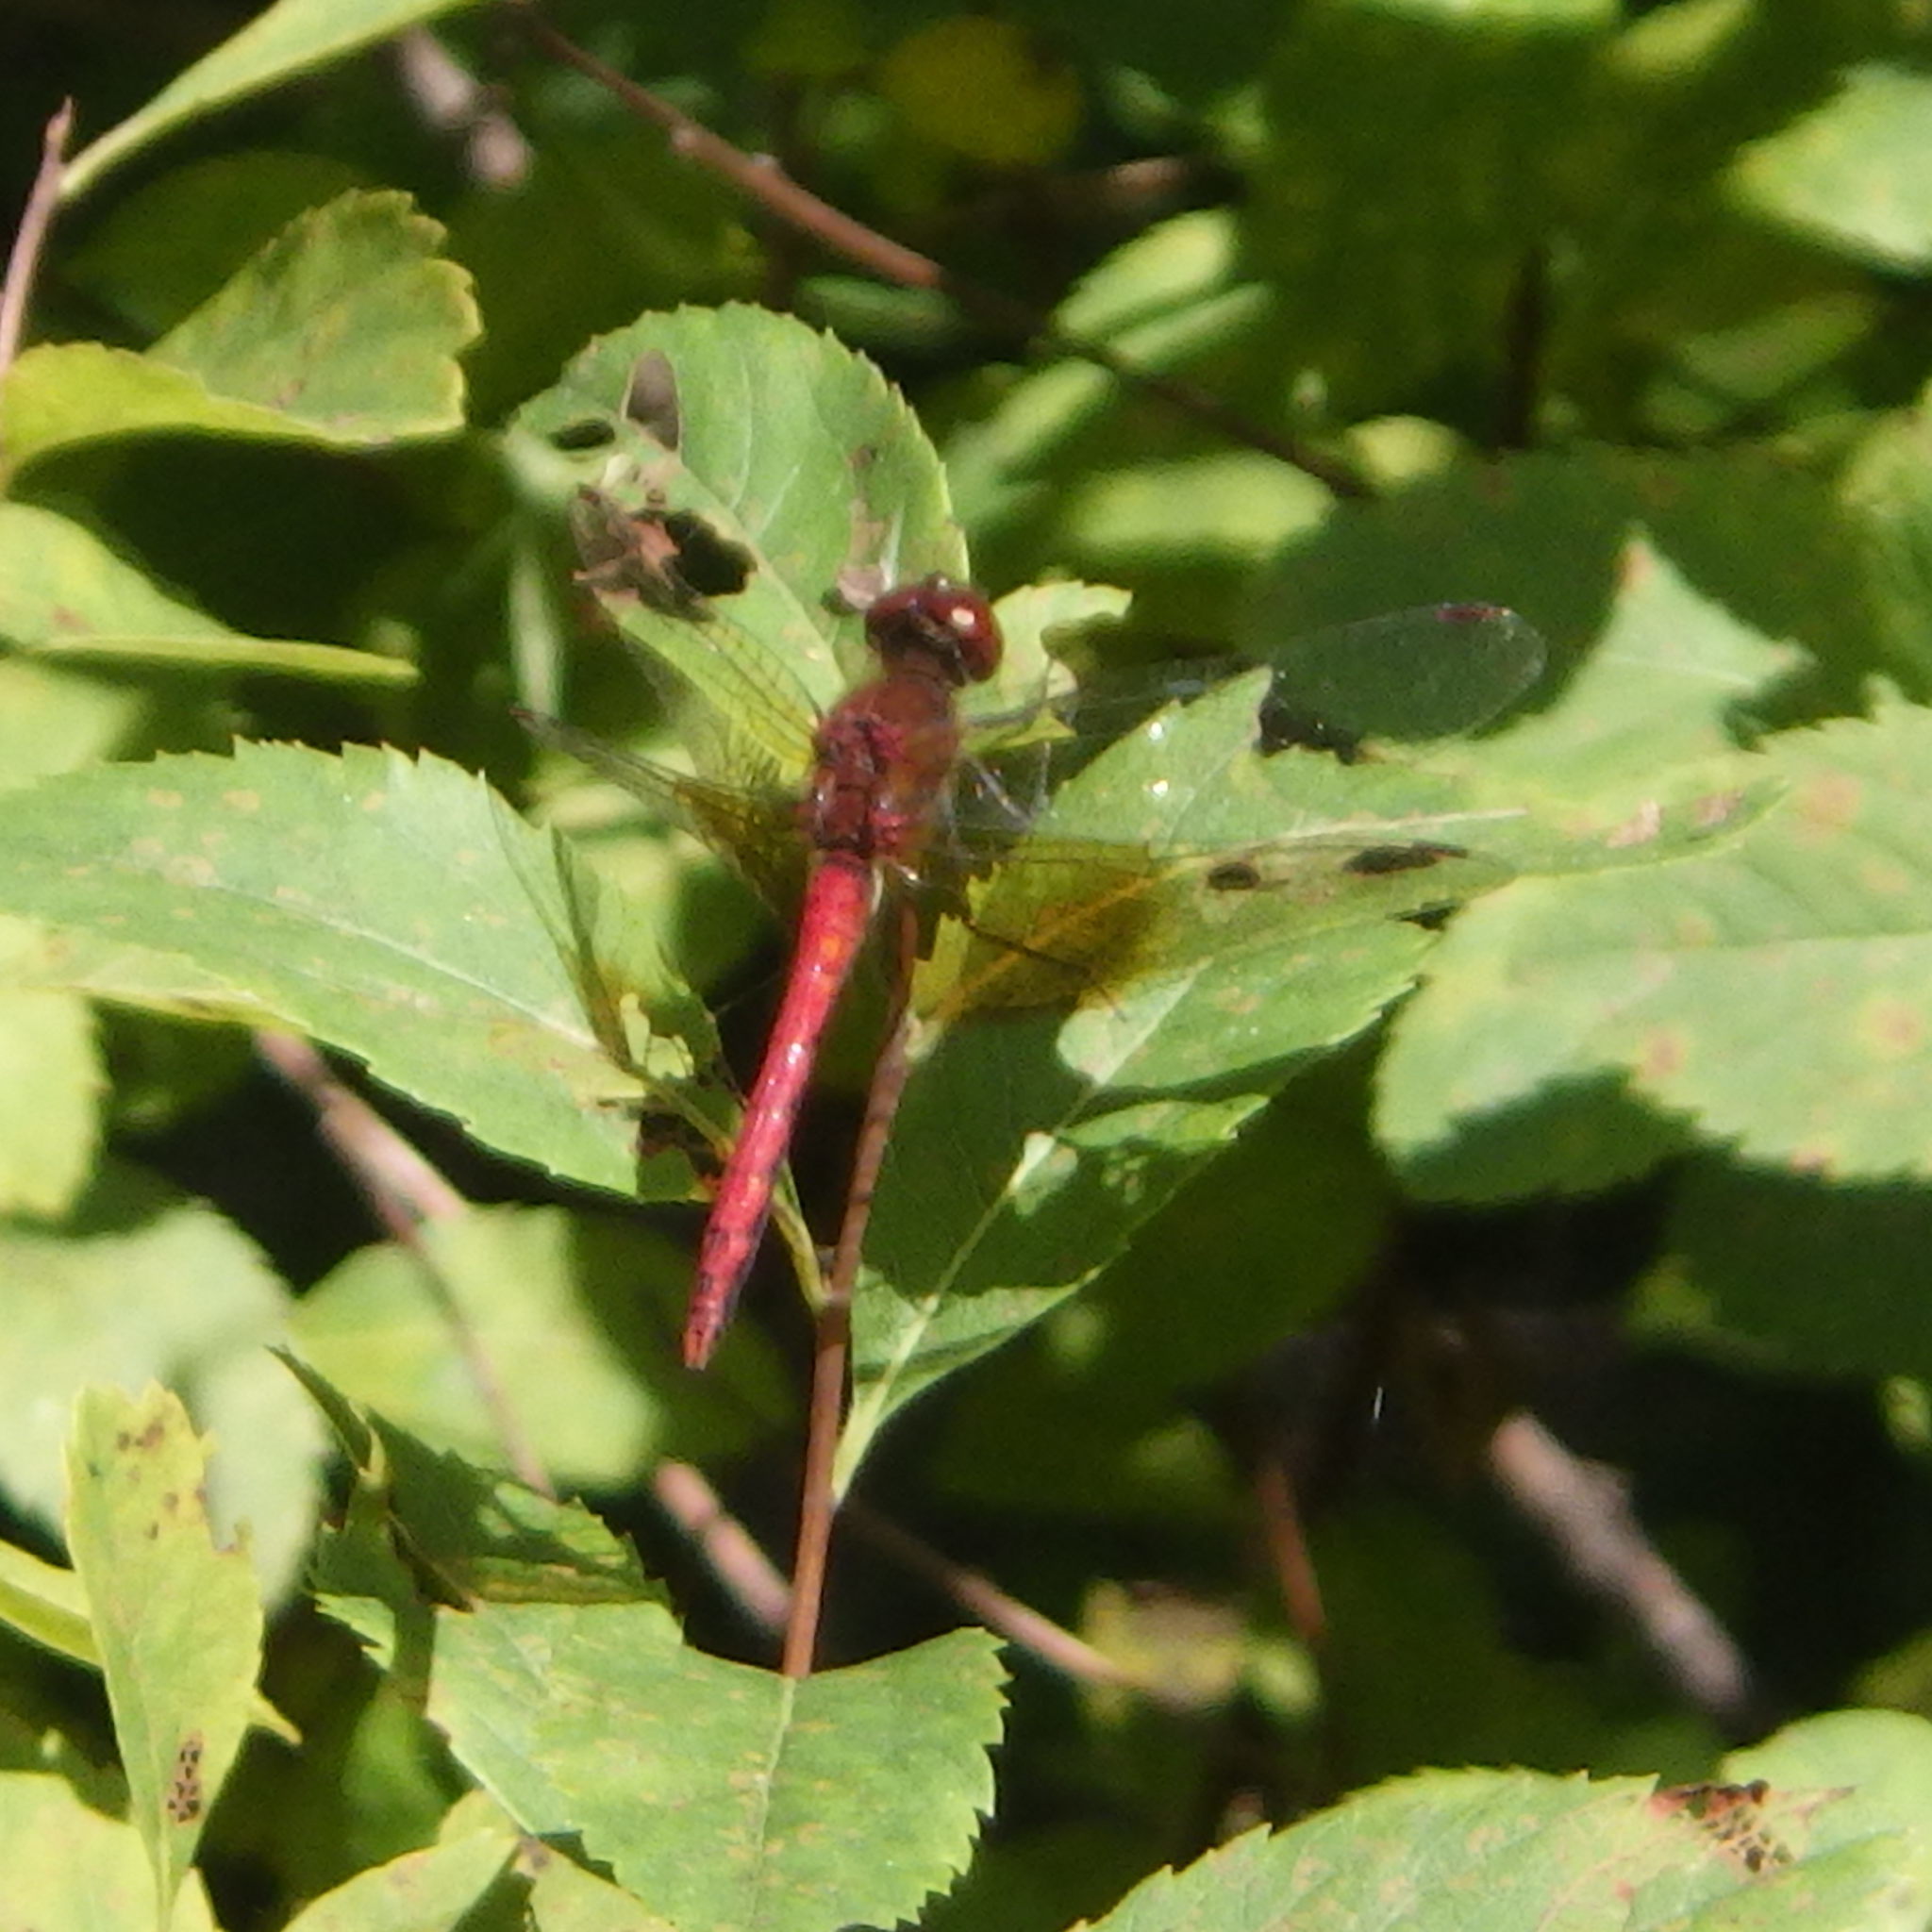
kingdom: Animalia
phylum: Arthropoda
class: Insecta
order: Odonata
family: Libellulidae
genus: Sympetrum
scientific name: Sympetrum semicinctum
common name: Band-winged meadowhawk
